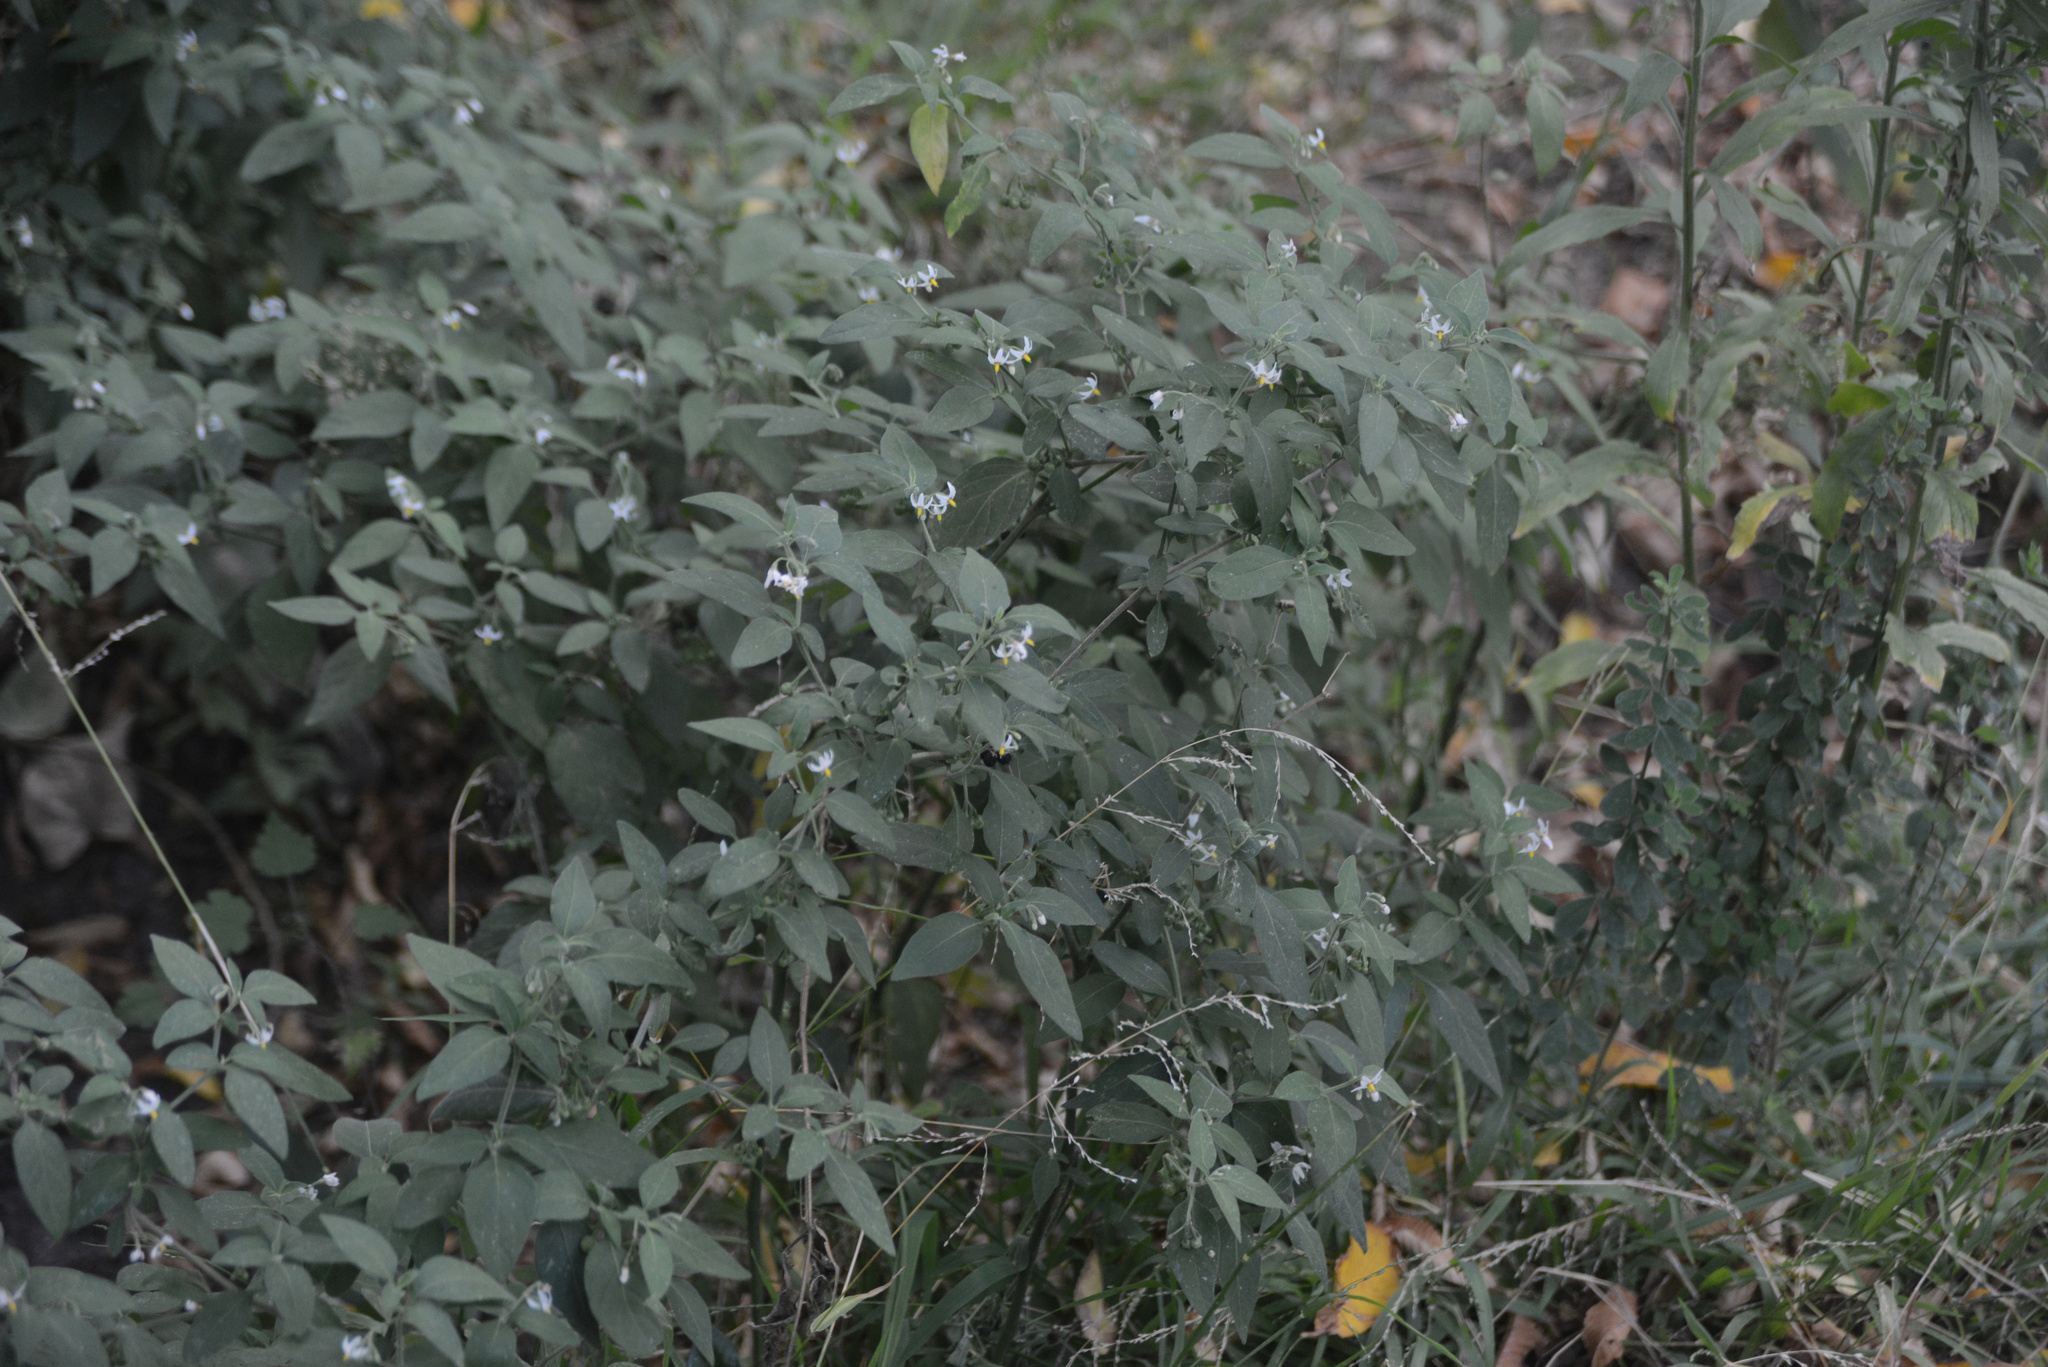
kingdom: Plantae
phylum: Tracheophyta
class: Magnoliopsida
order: Solanales
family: Solanaceae
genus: Solanum
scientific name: Solanum chenopodioides
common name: Tall nightshade
